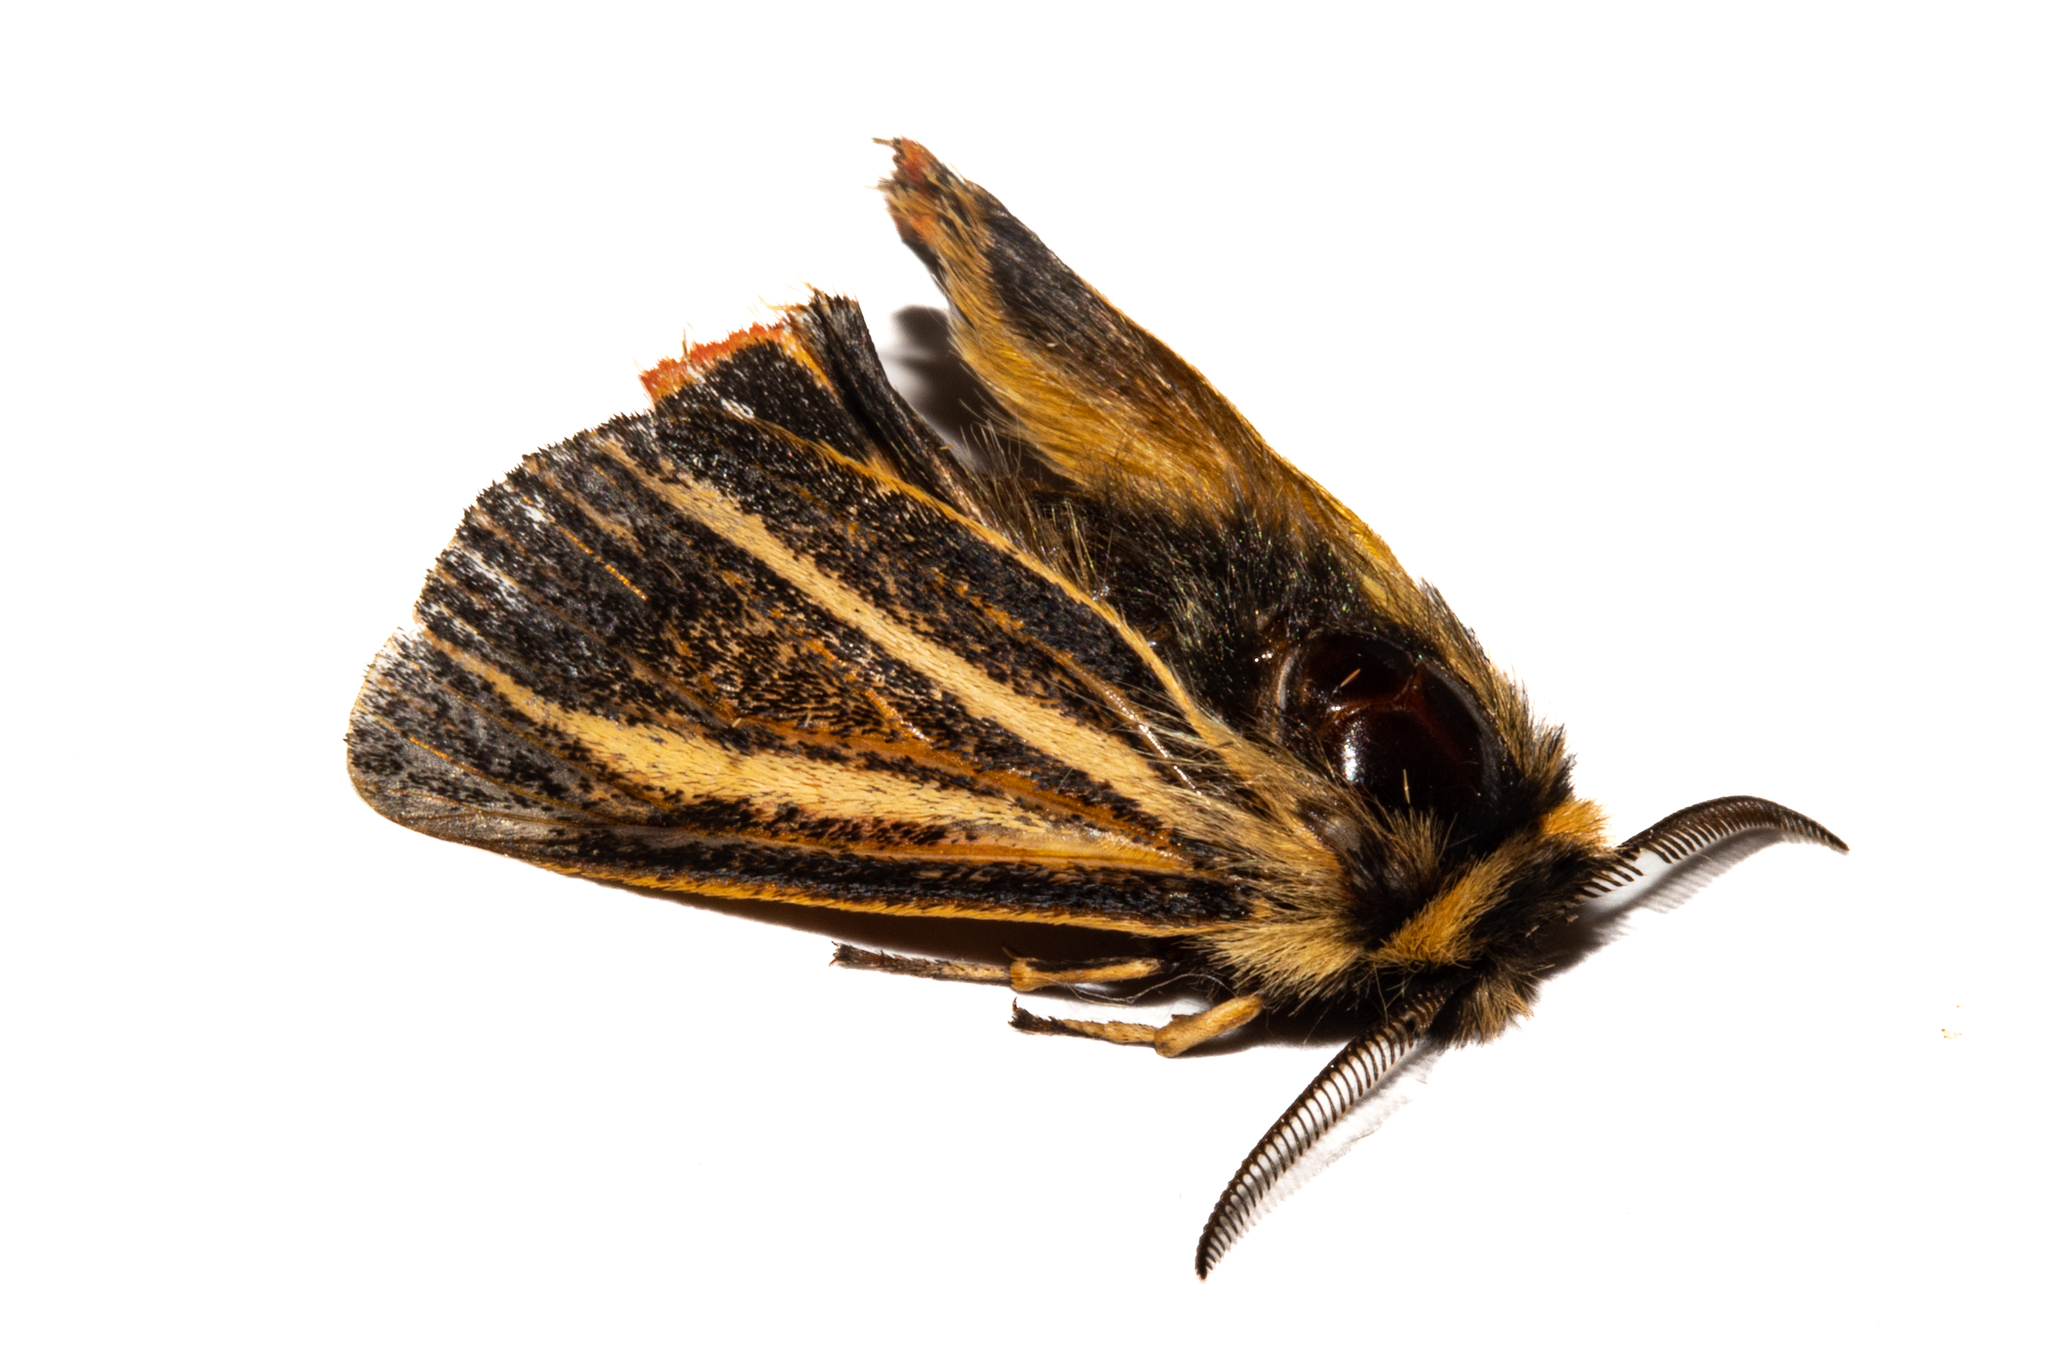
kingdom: Animalia
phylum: Arthropoda
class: Insecta
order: Lepidoptera
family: Erebidae
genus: Metacrias
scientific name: Metacrias strategica
